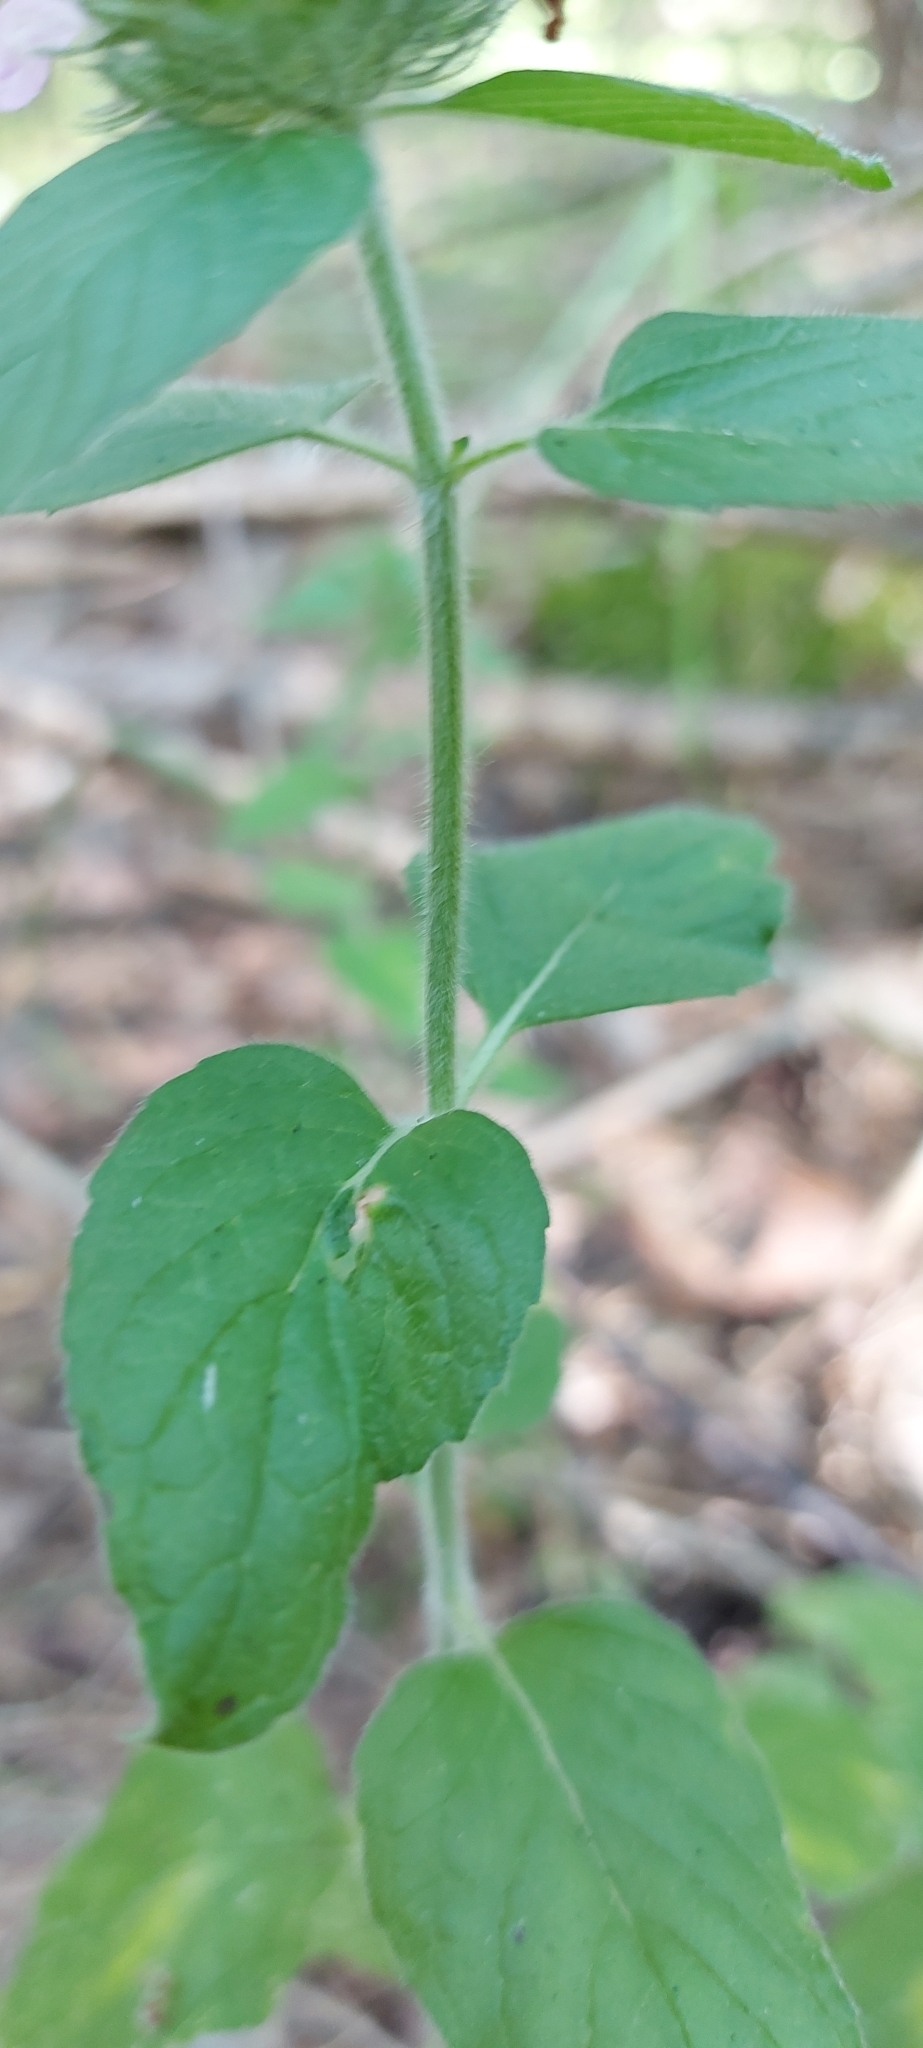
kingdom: Plantae
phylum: Tracheophyta
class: Magnoliopsida
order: Lamiales
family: Lamiaceae
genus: Clinopodium
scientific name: Clinopodium vulgare
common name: Wild basil
